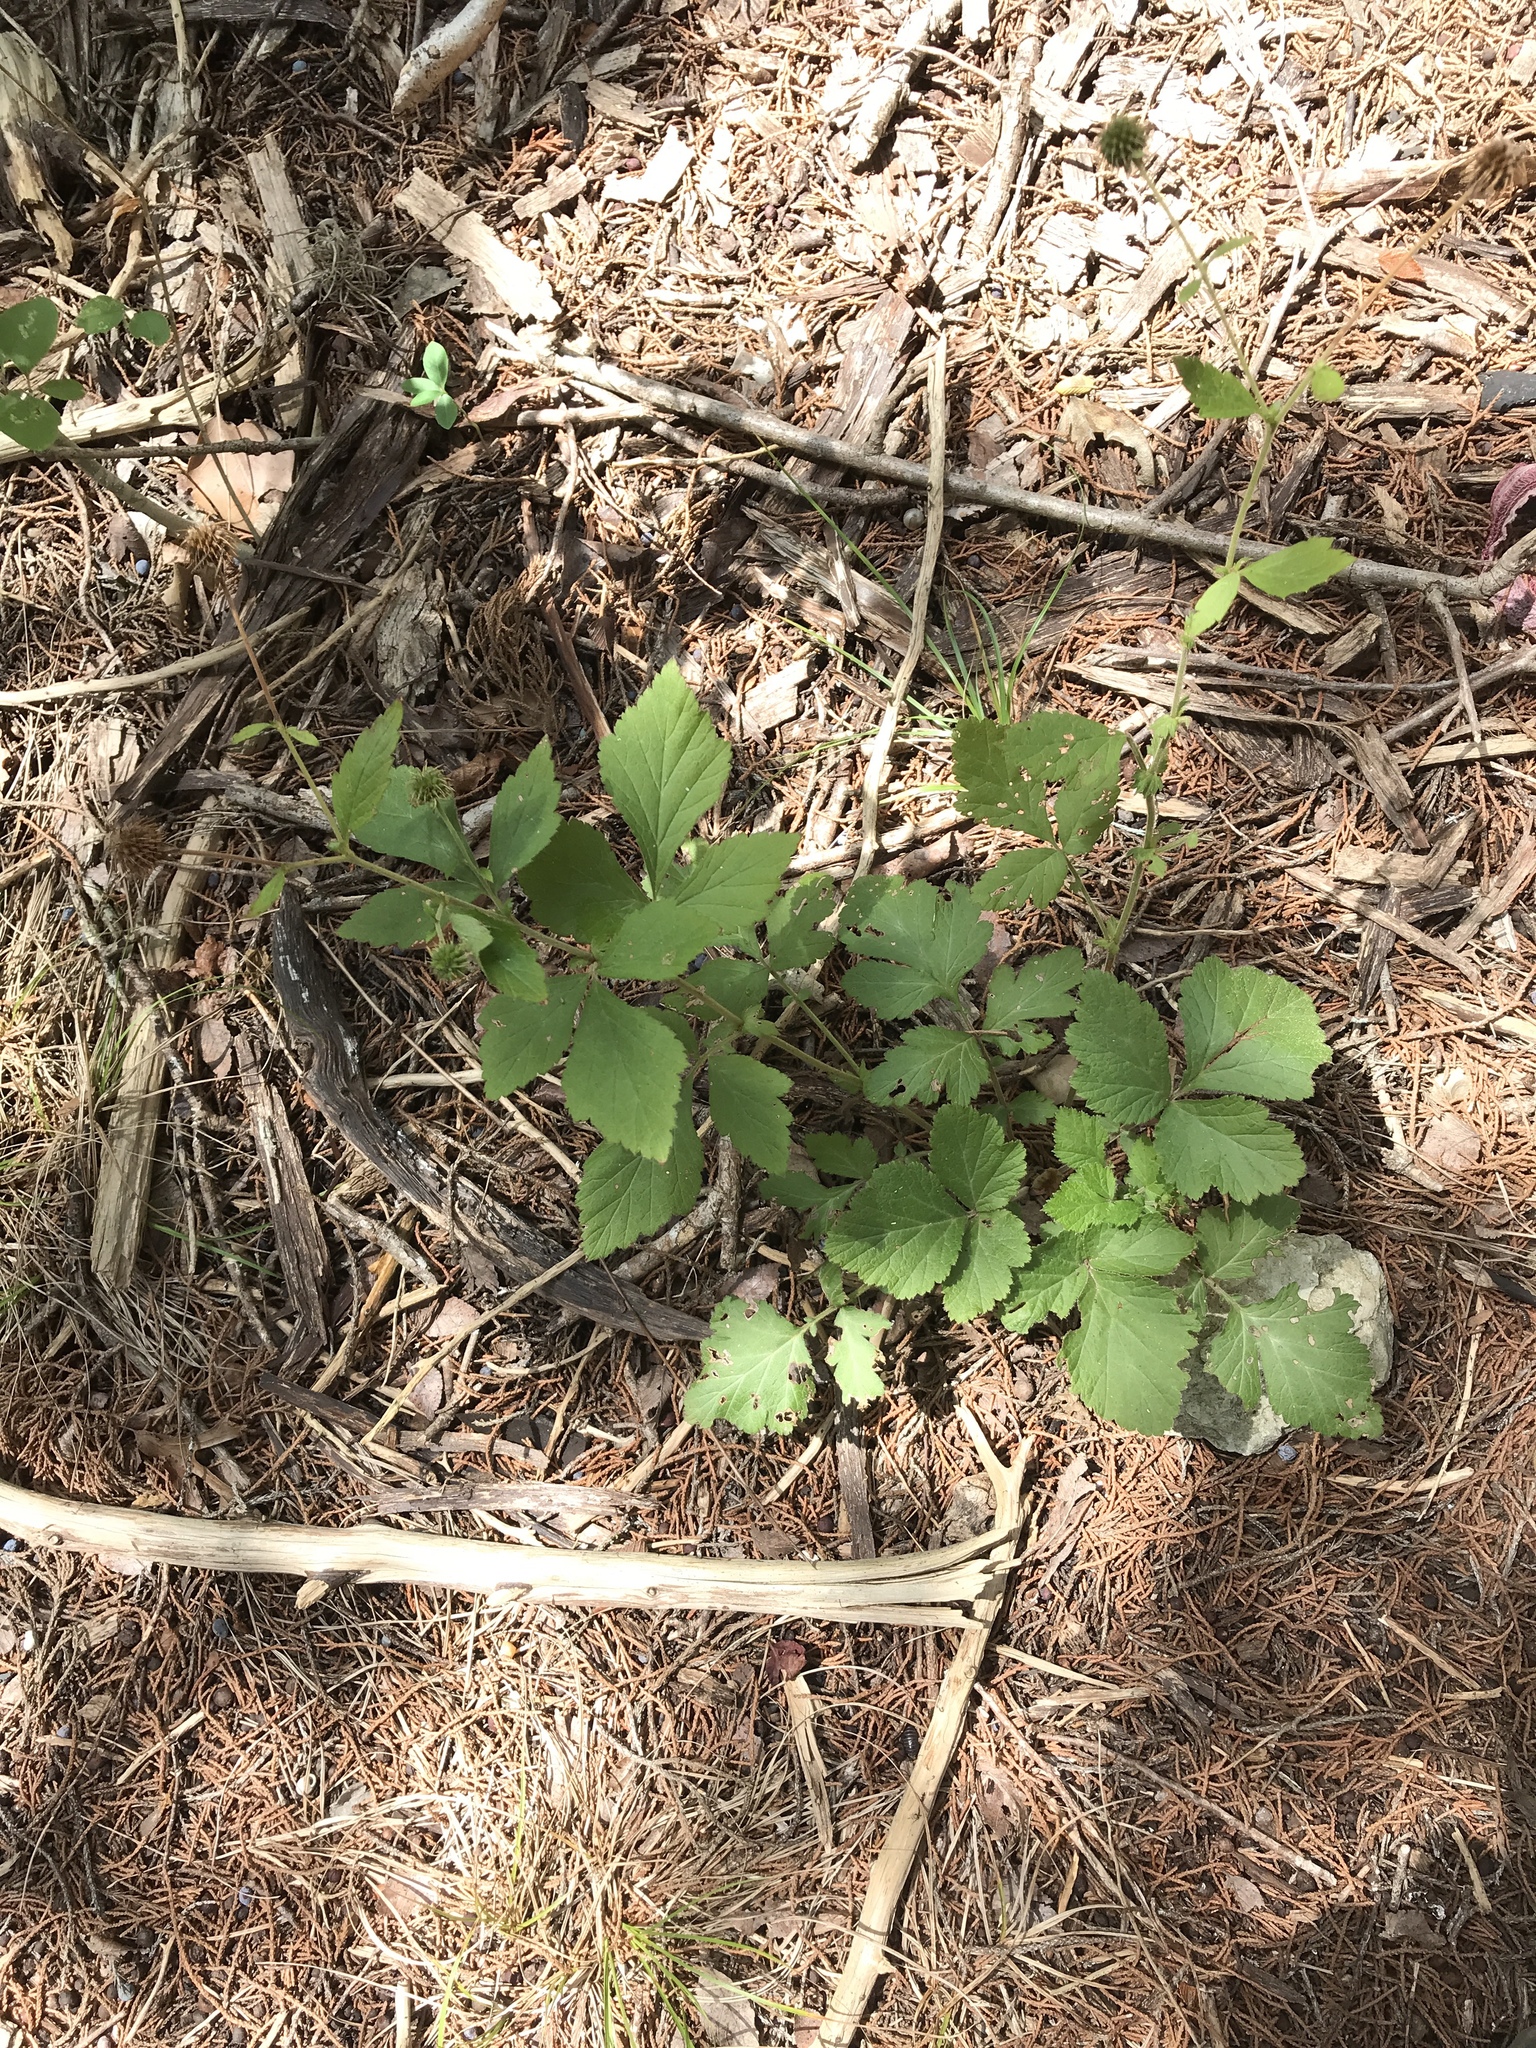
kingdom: Plantae
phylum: Tracheophyta
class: Magnoliopsida
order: Rosales
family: Rosaceae
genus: Geum
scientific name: Geum canadense
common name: White avens
